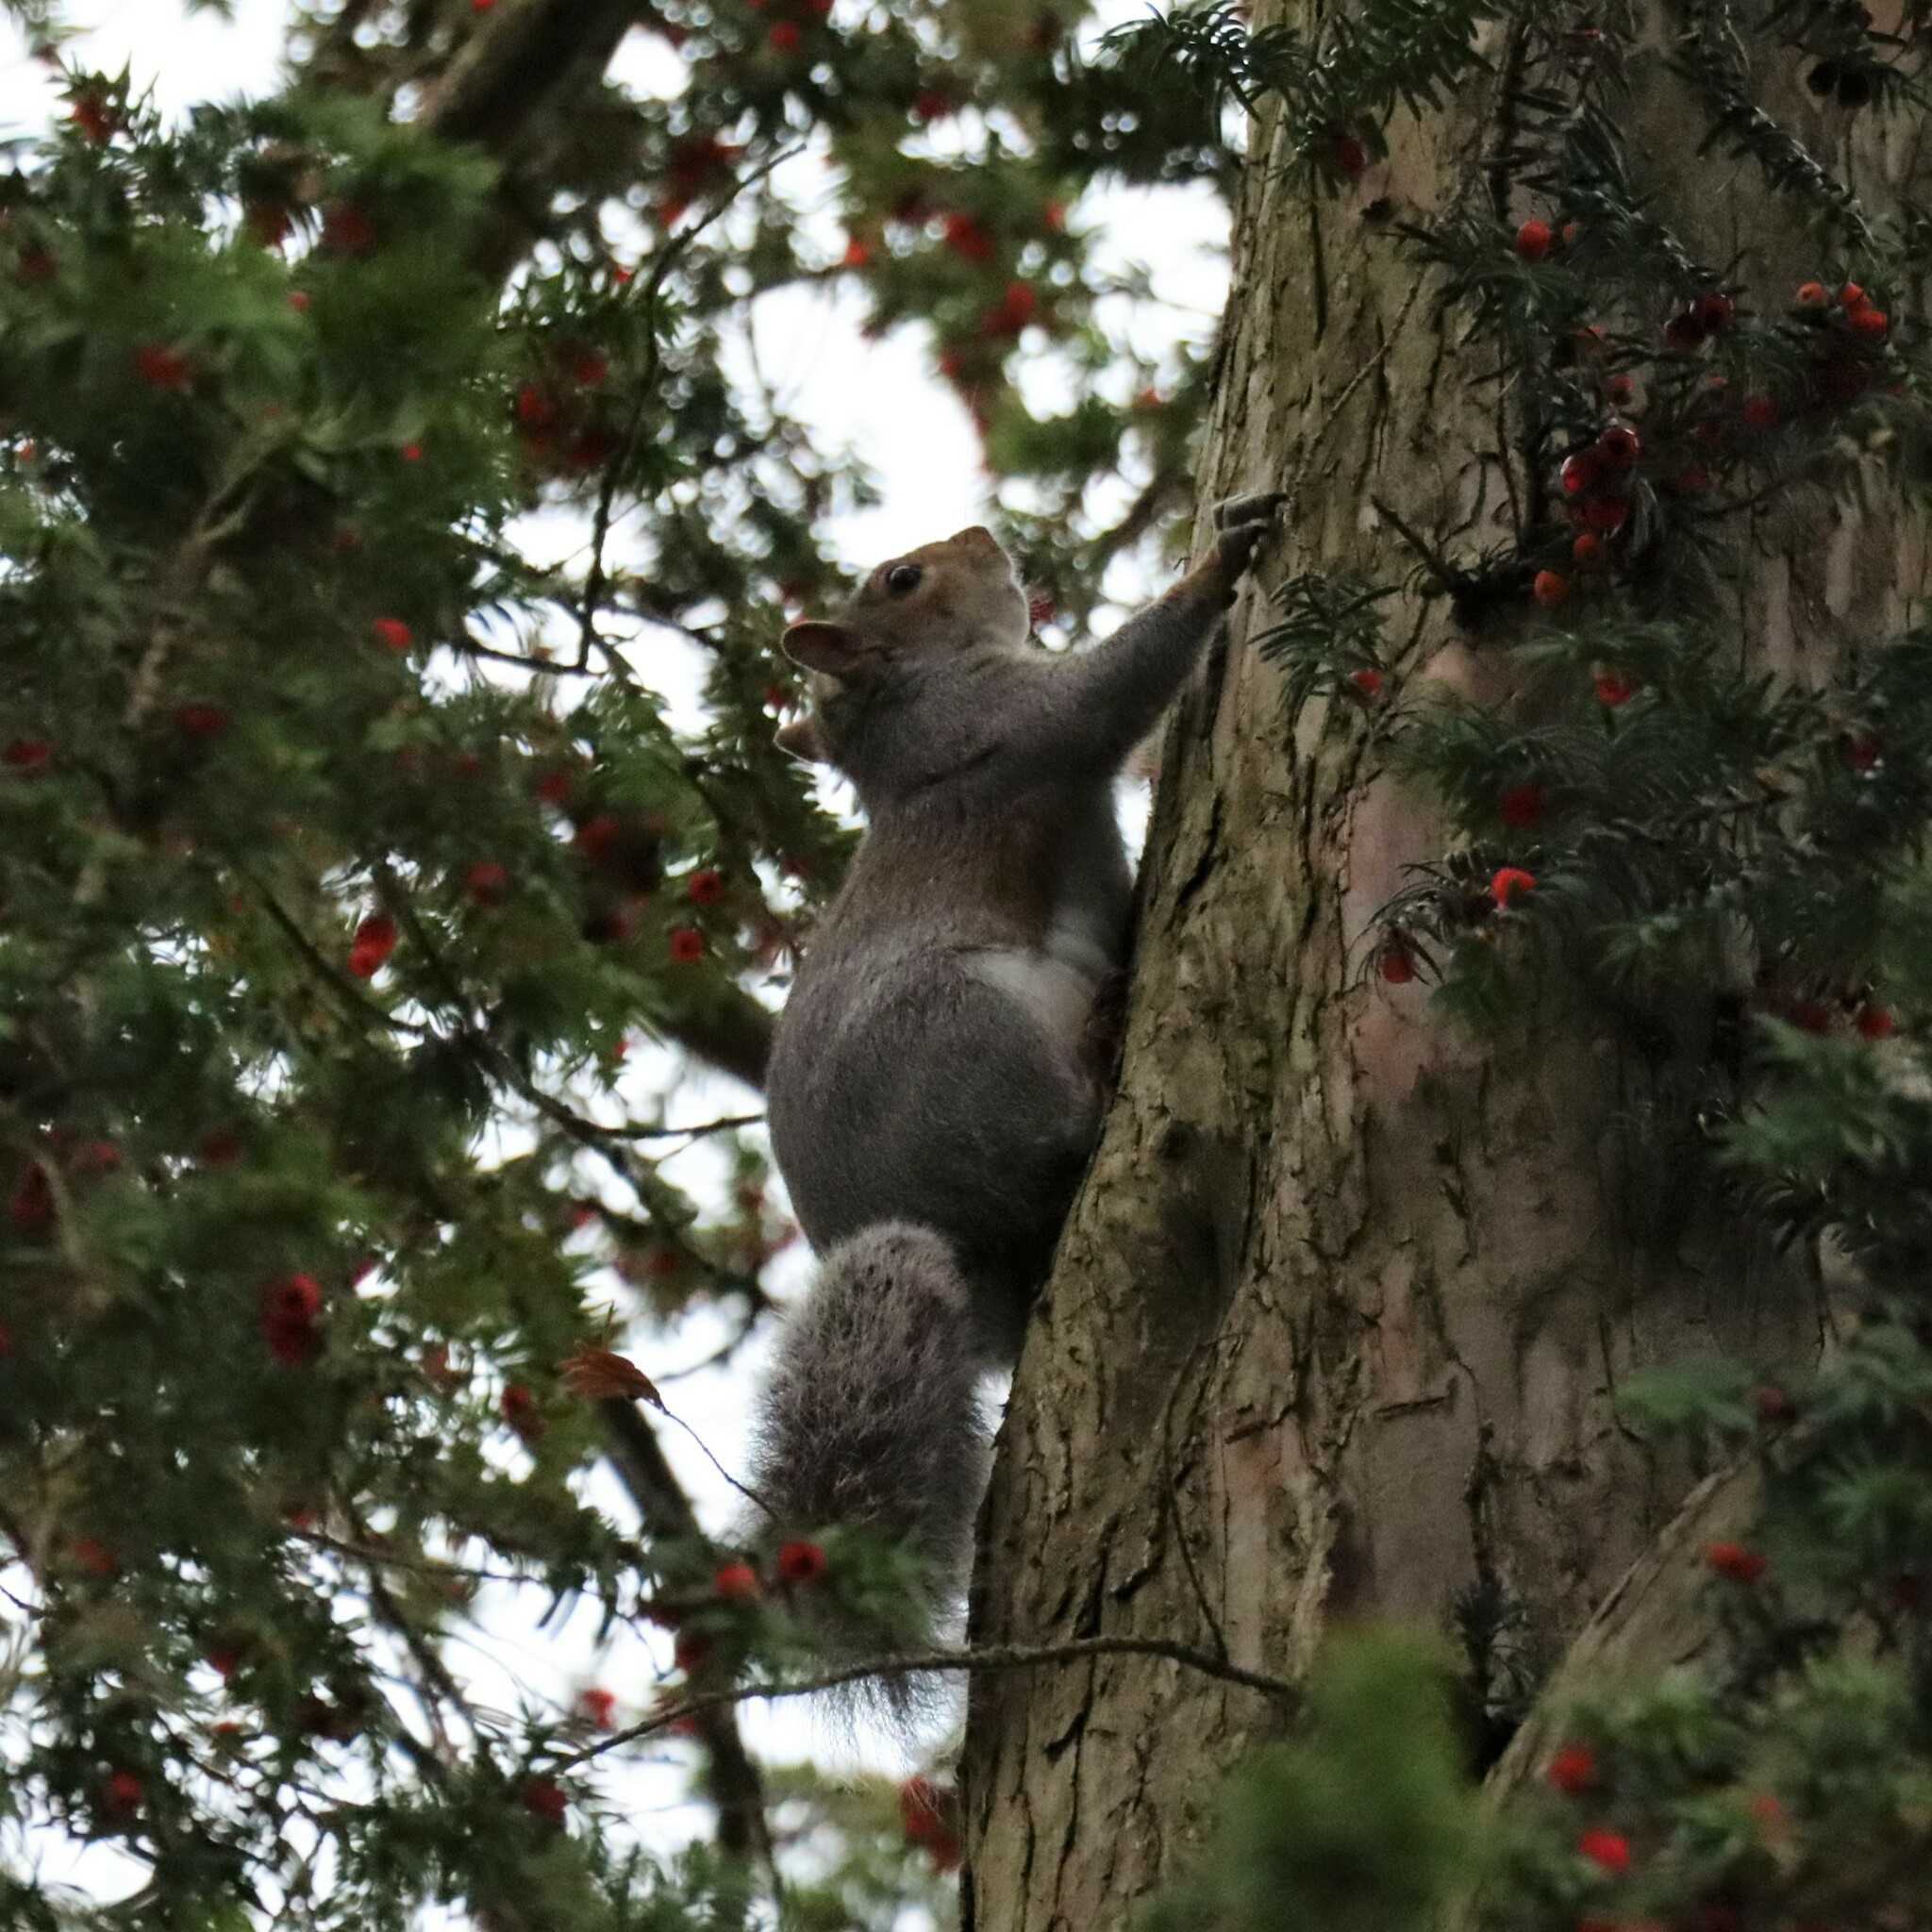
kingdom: Animalia
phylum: Chordata
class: Mammalia
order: Rodentia
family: Sciuridae
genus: Sciurus
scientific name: Sciurus carolinensis
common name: Eastern gray squirrel
